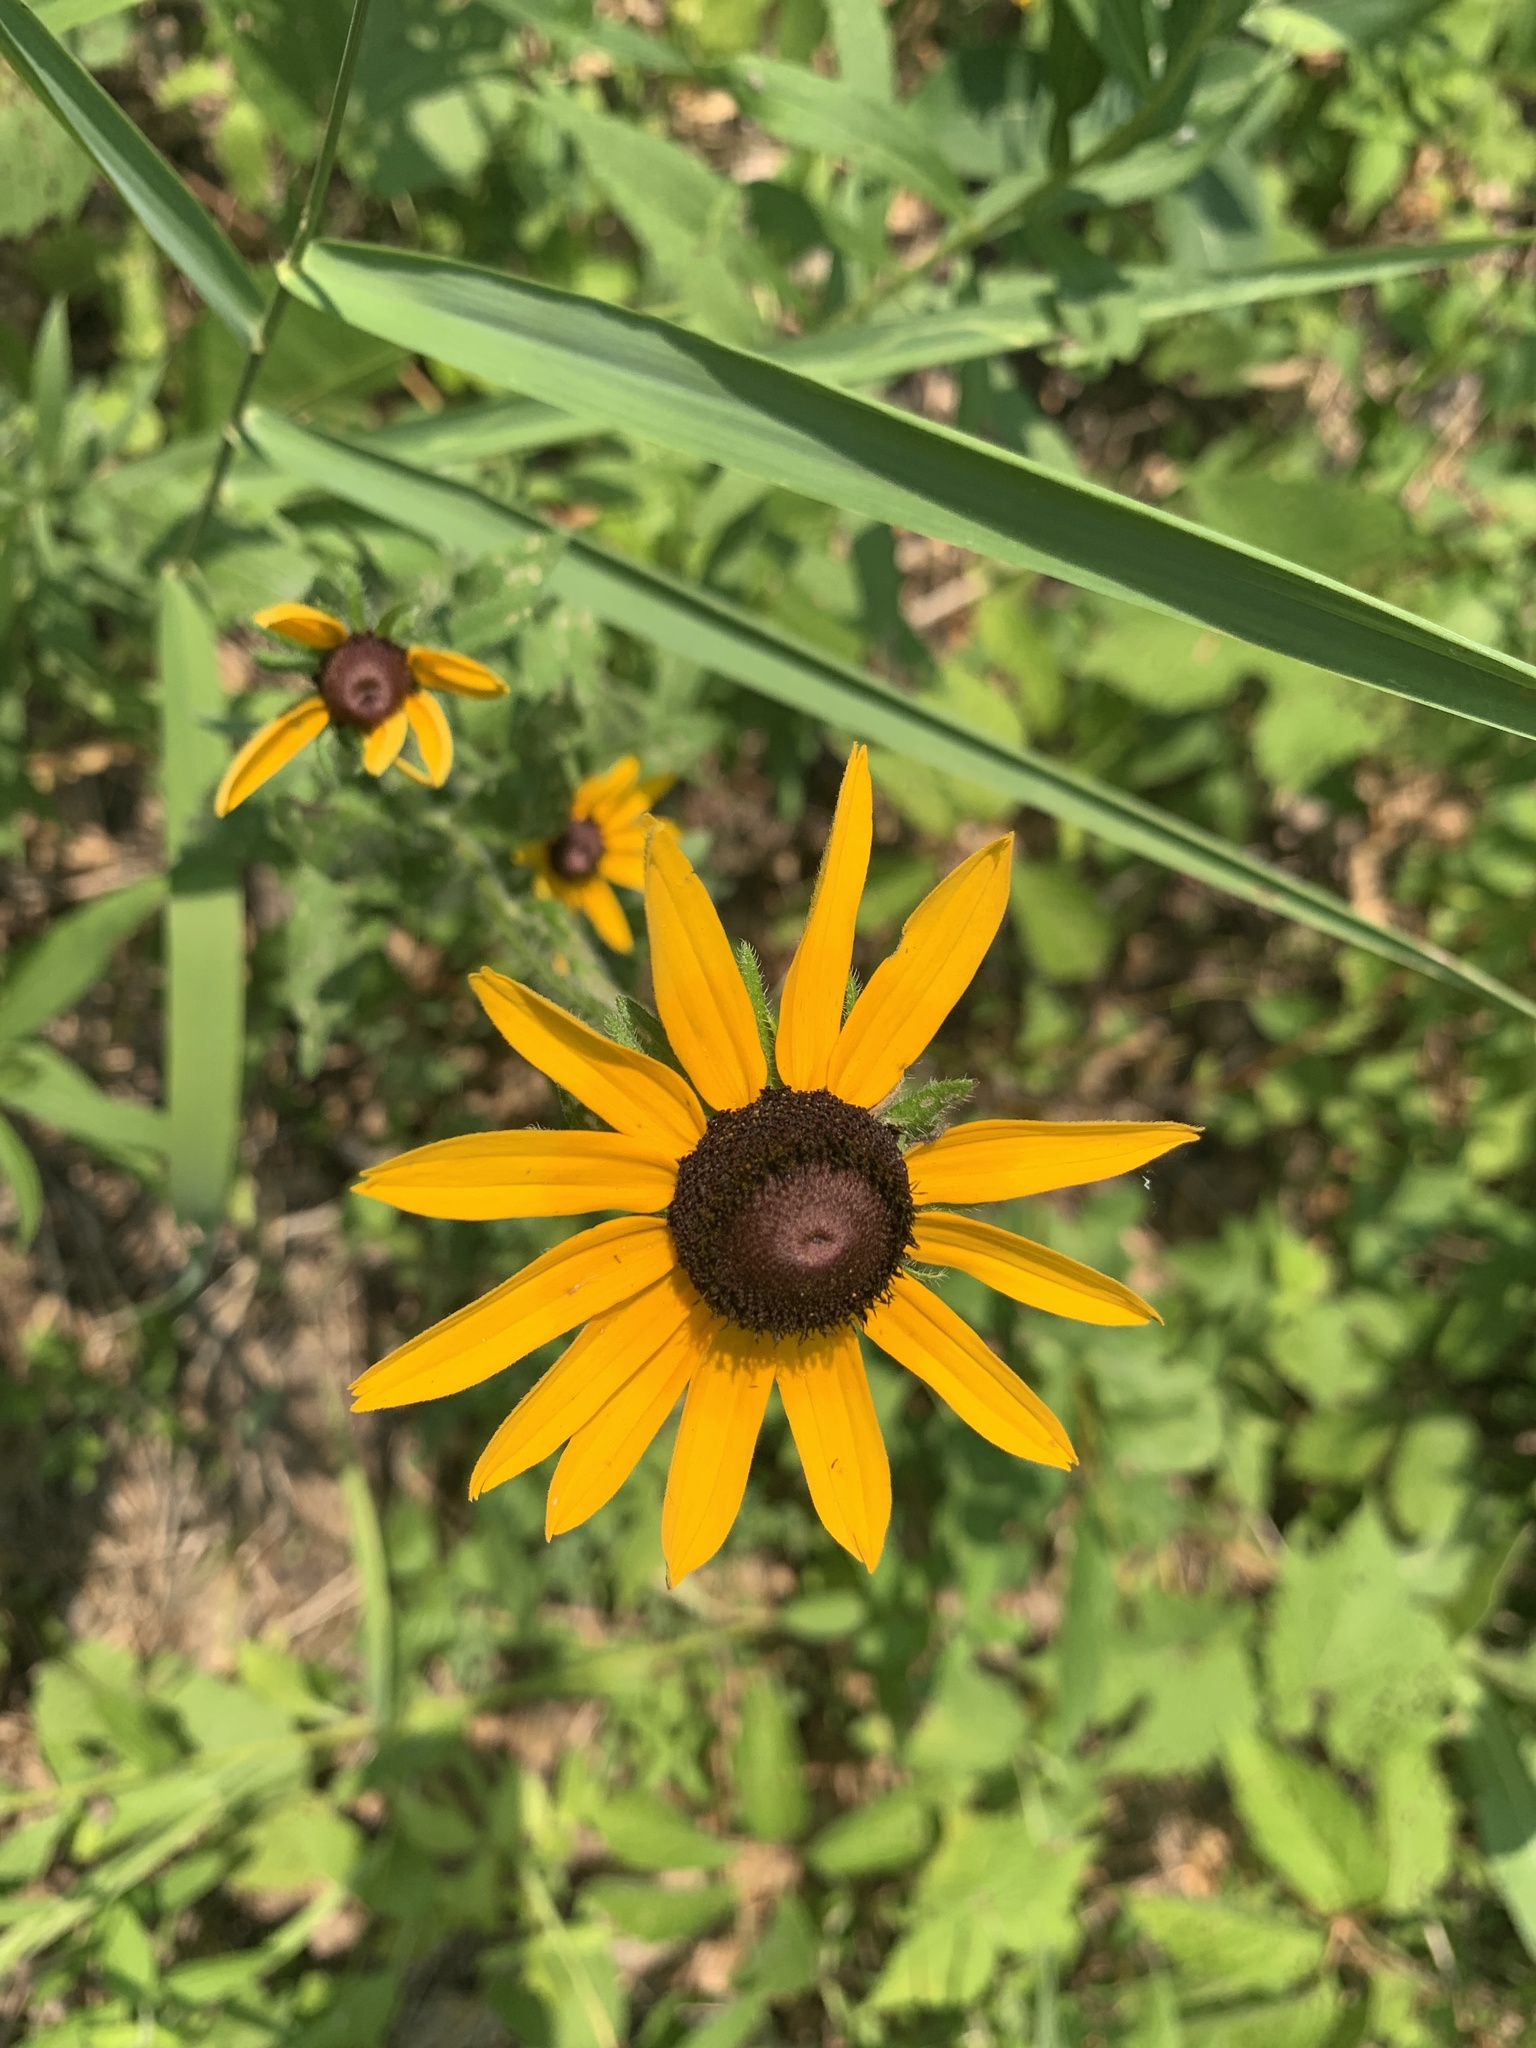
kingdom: Plantae
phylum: Tracheophyta
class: Magnoliopsida
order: Asterales
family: Asteraceae
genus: Rudbeckia
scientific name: Rudbeckia hirta
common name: Black-eyed-susan
